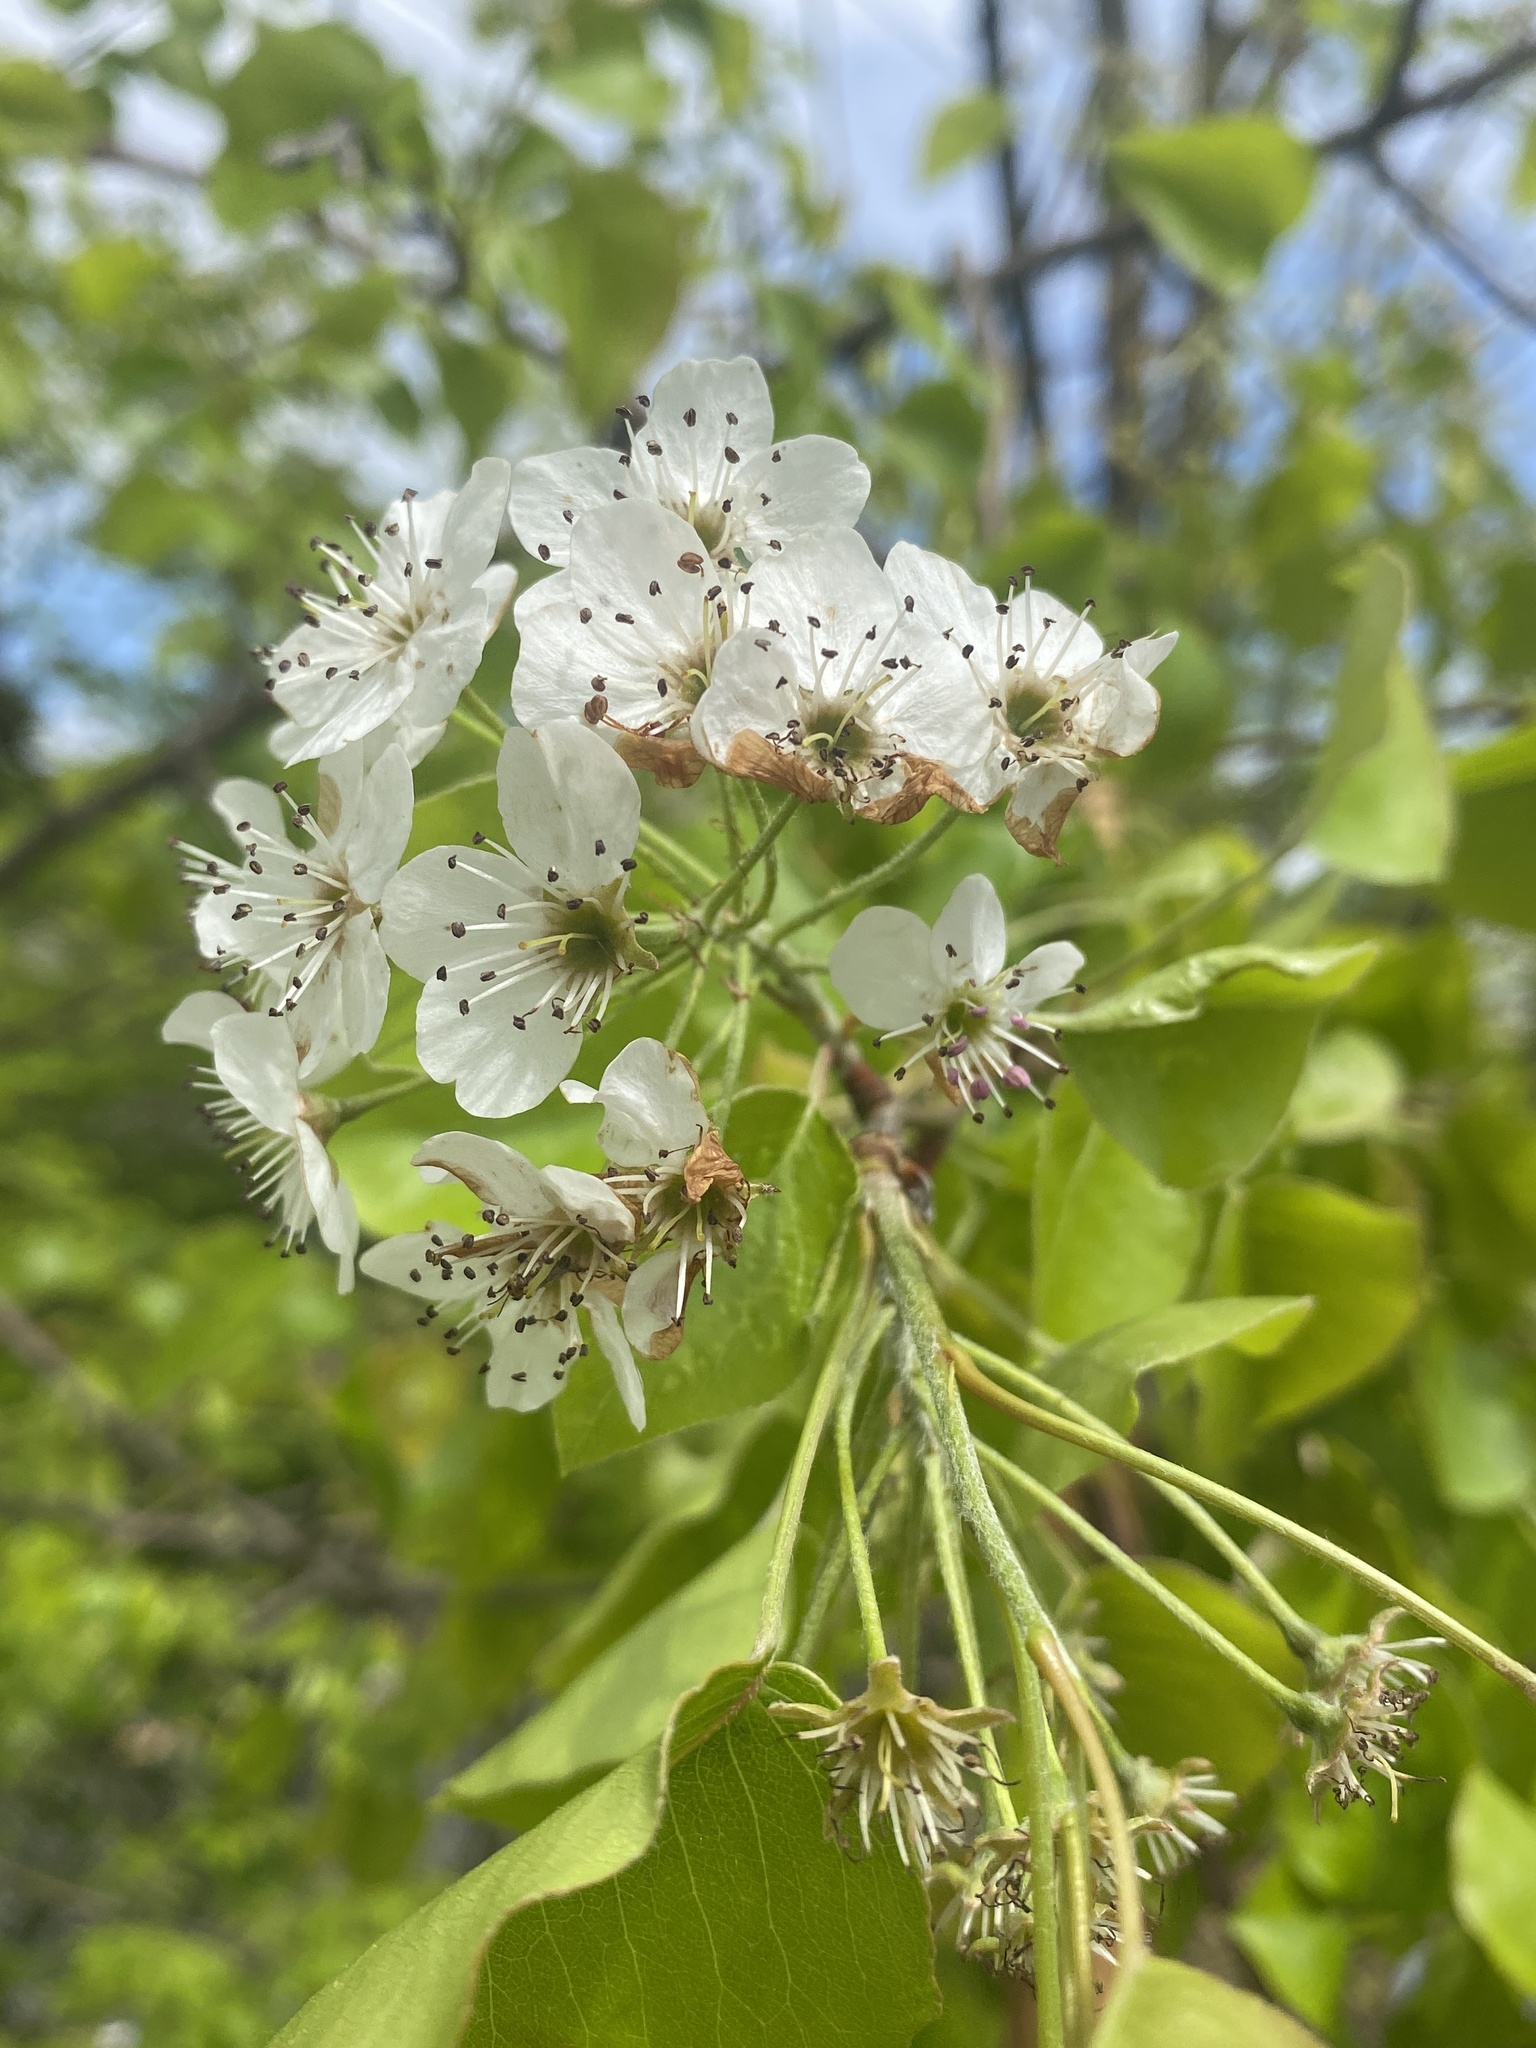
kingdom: Plantae
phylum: Tracheophyta
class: Magnoliopsida
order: Rosales
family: Rosaceae
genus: Pyrus
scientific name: Pyrus calleryana
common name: Callery pear
